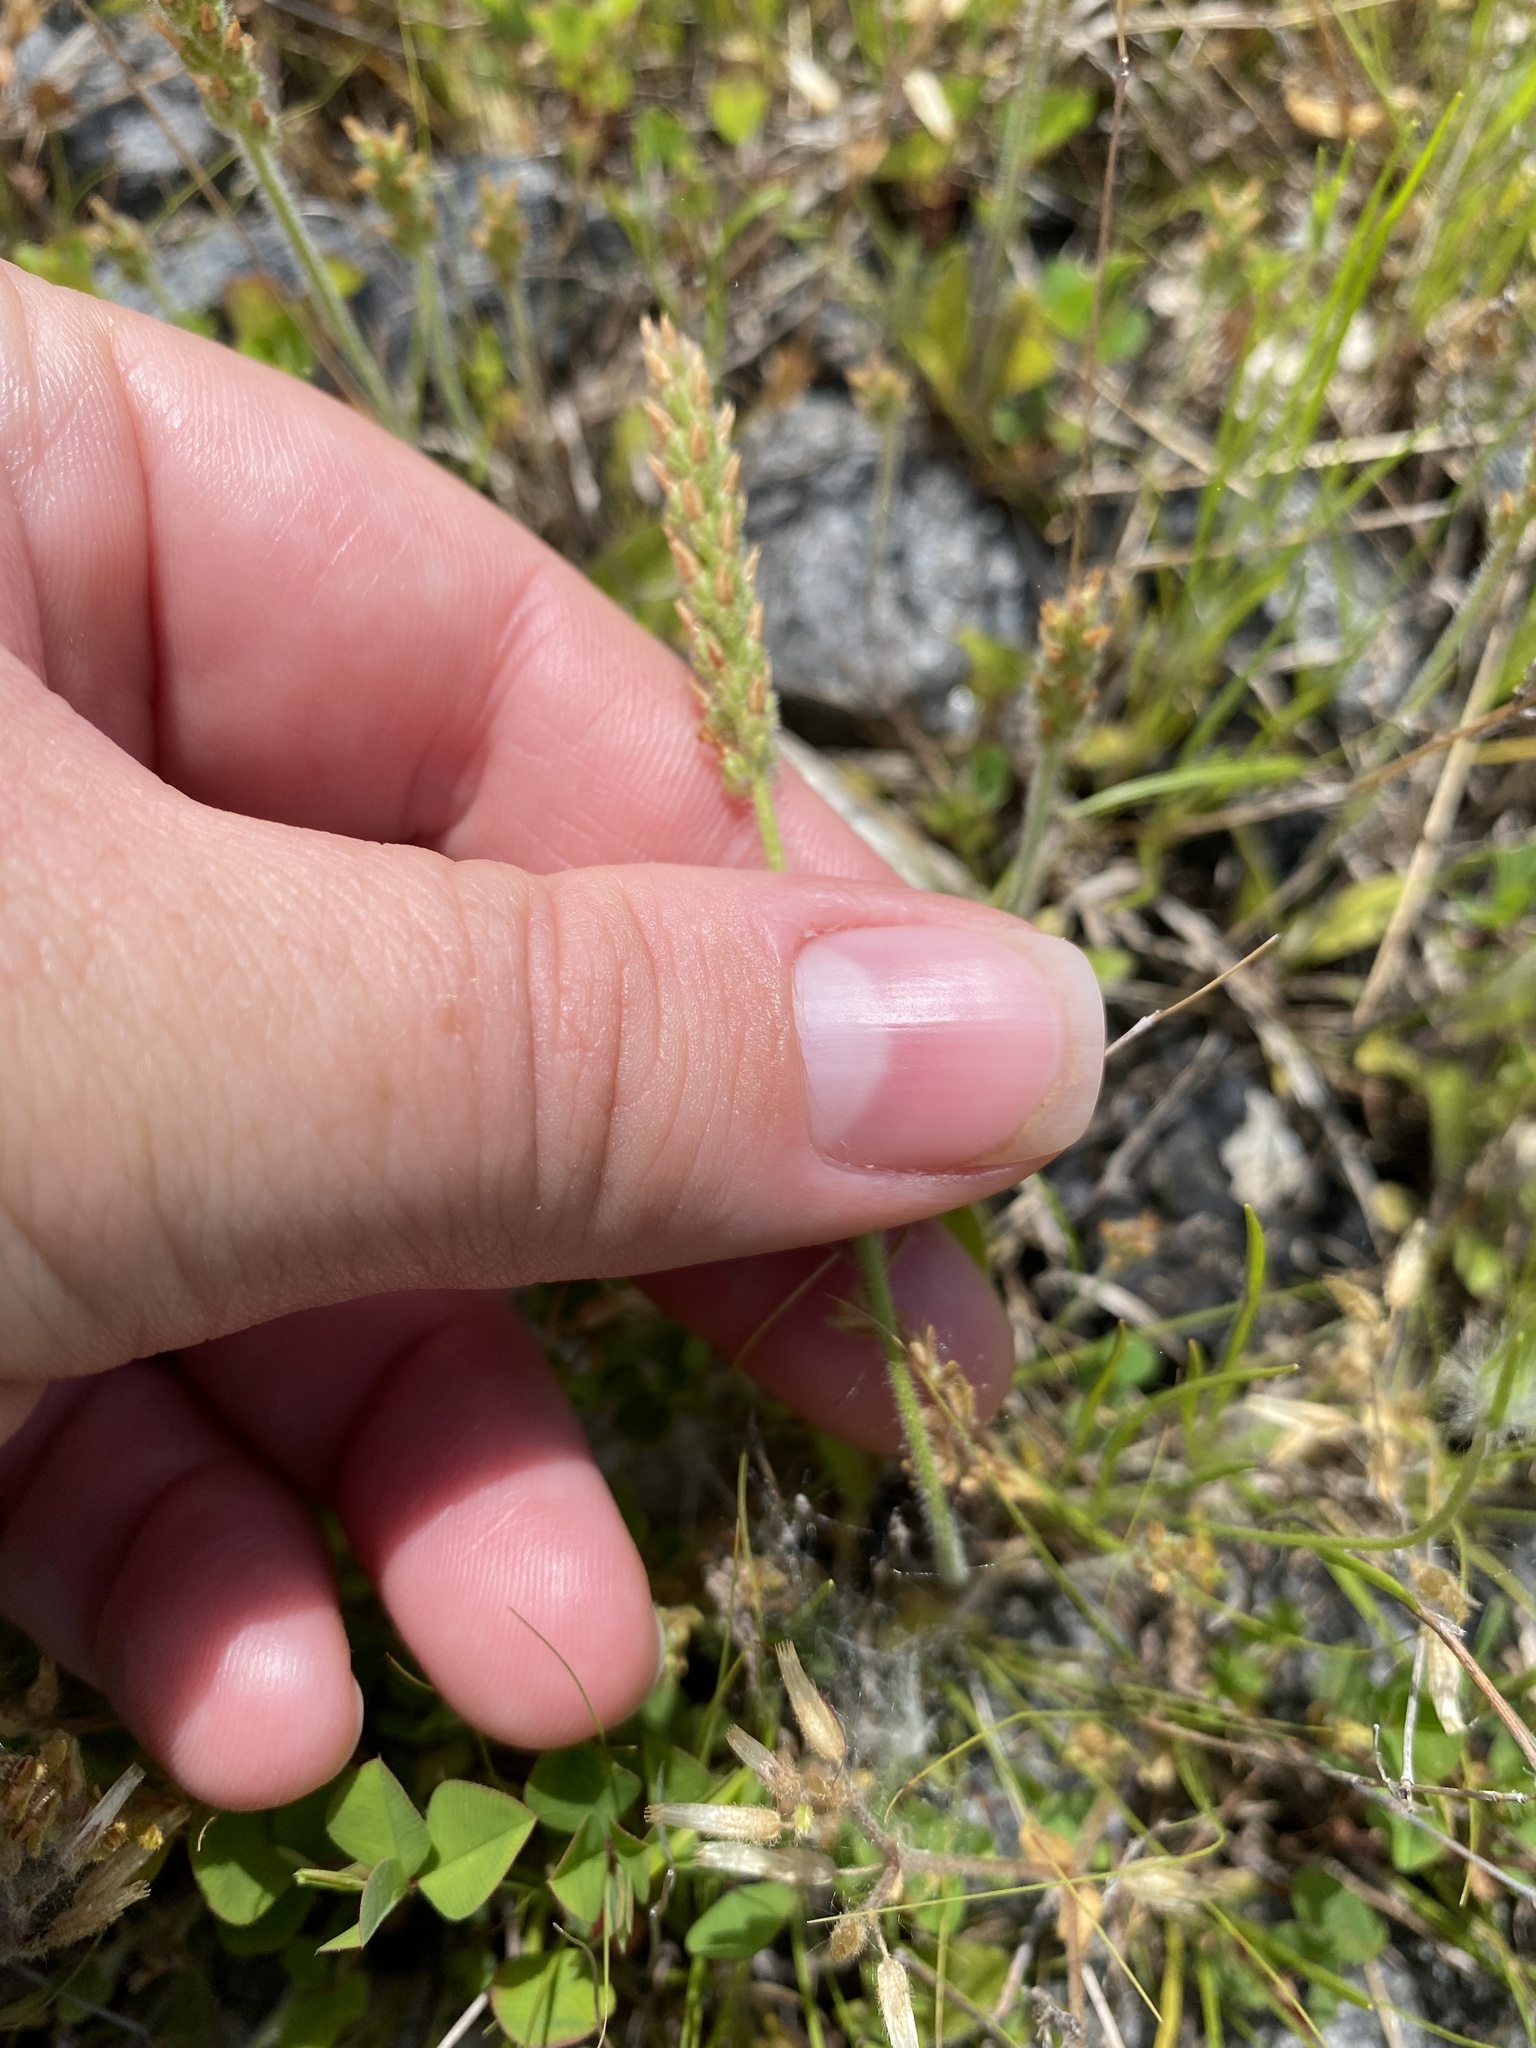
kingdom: Plantae
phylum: Tracheophyta
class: Magnoliopsida
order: Lamiales
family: Plantaginaceae
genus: Plantago
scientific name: Plantago virginica
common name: Hoary plantain
